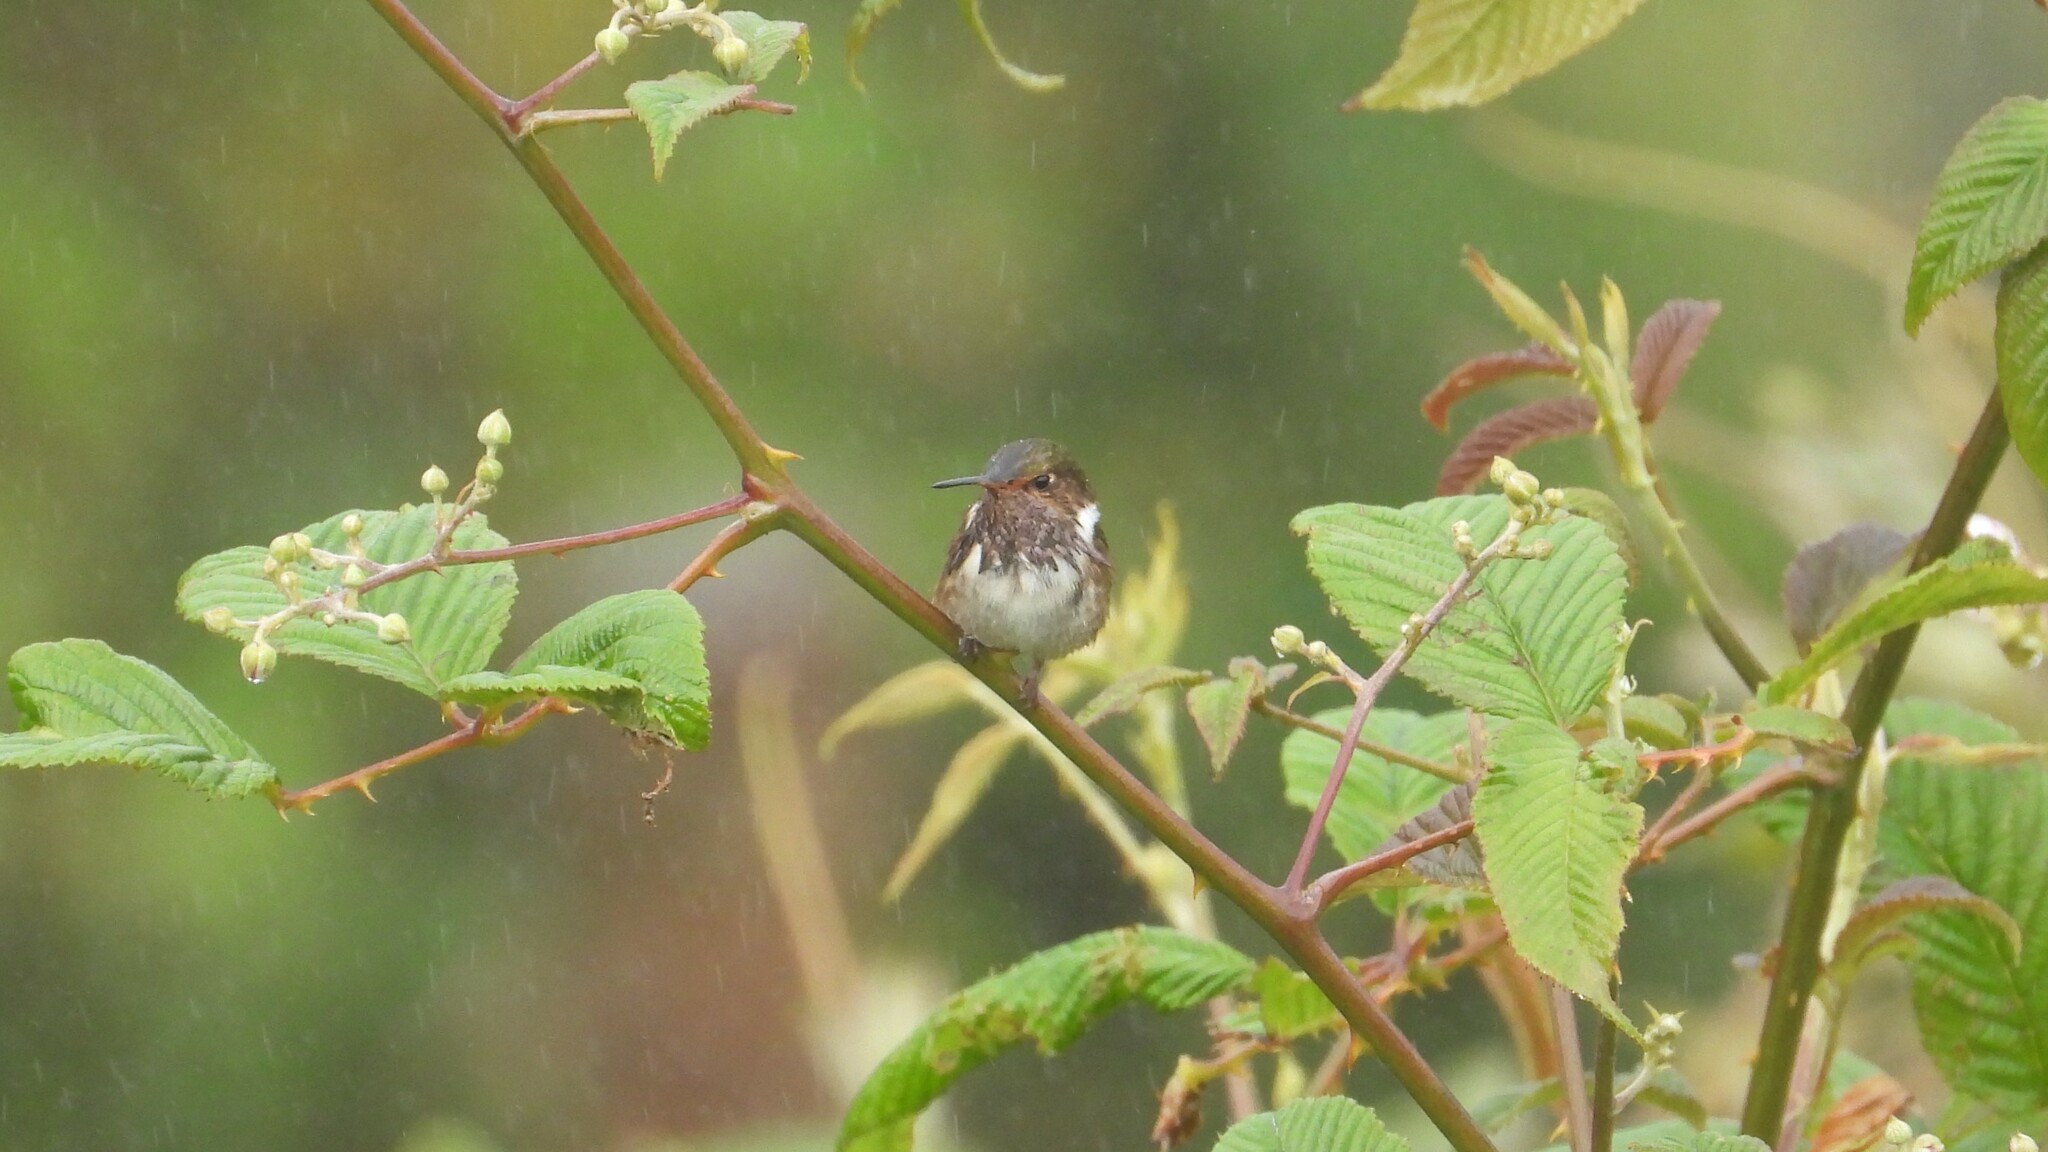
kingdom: Animalia
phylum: Chordata
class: Aves
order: Apodiformes
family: Trochilidae
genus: Selasphorus
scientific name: Selasphorus flammula
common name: Volcano hummingbird
